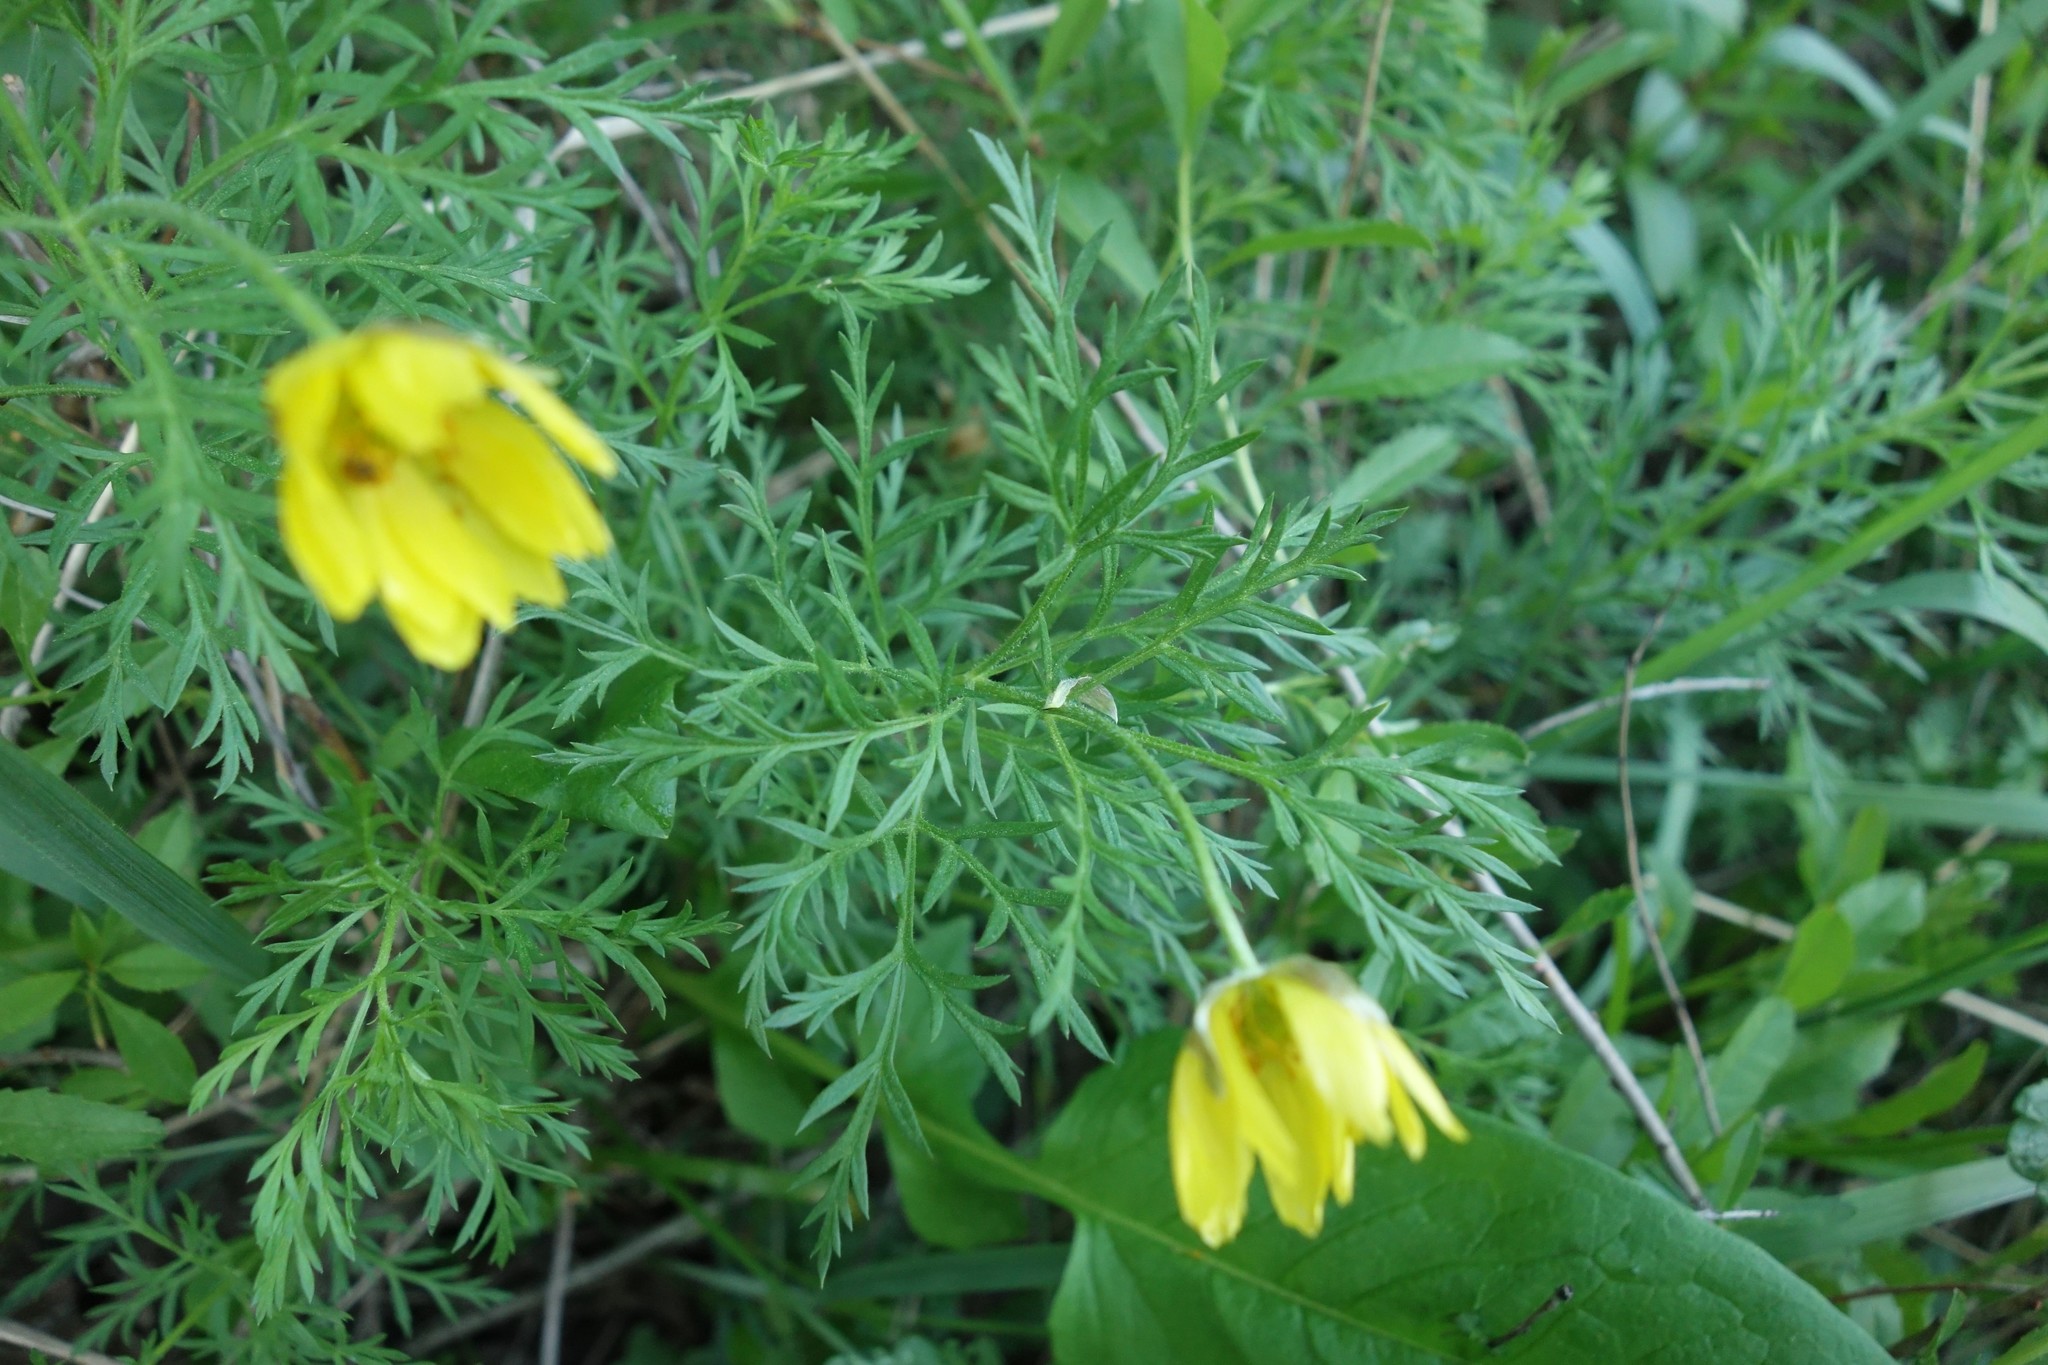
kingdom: Plantae
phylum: Tracheophyta
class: Magnoliopsida
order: Ranunculales
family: Ranunculaceae
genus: Adonis
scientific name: Adonis volgensis
